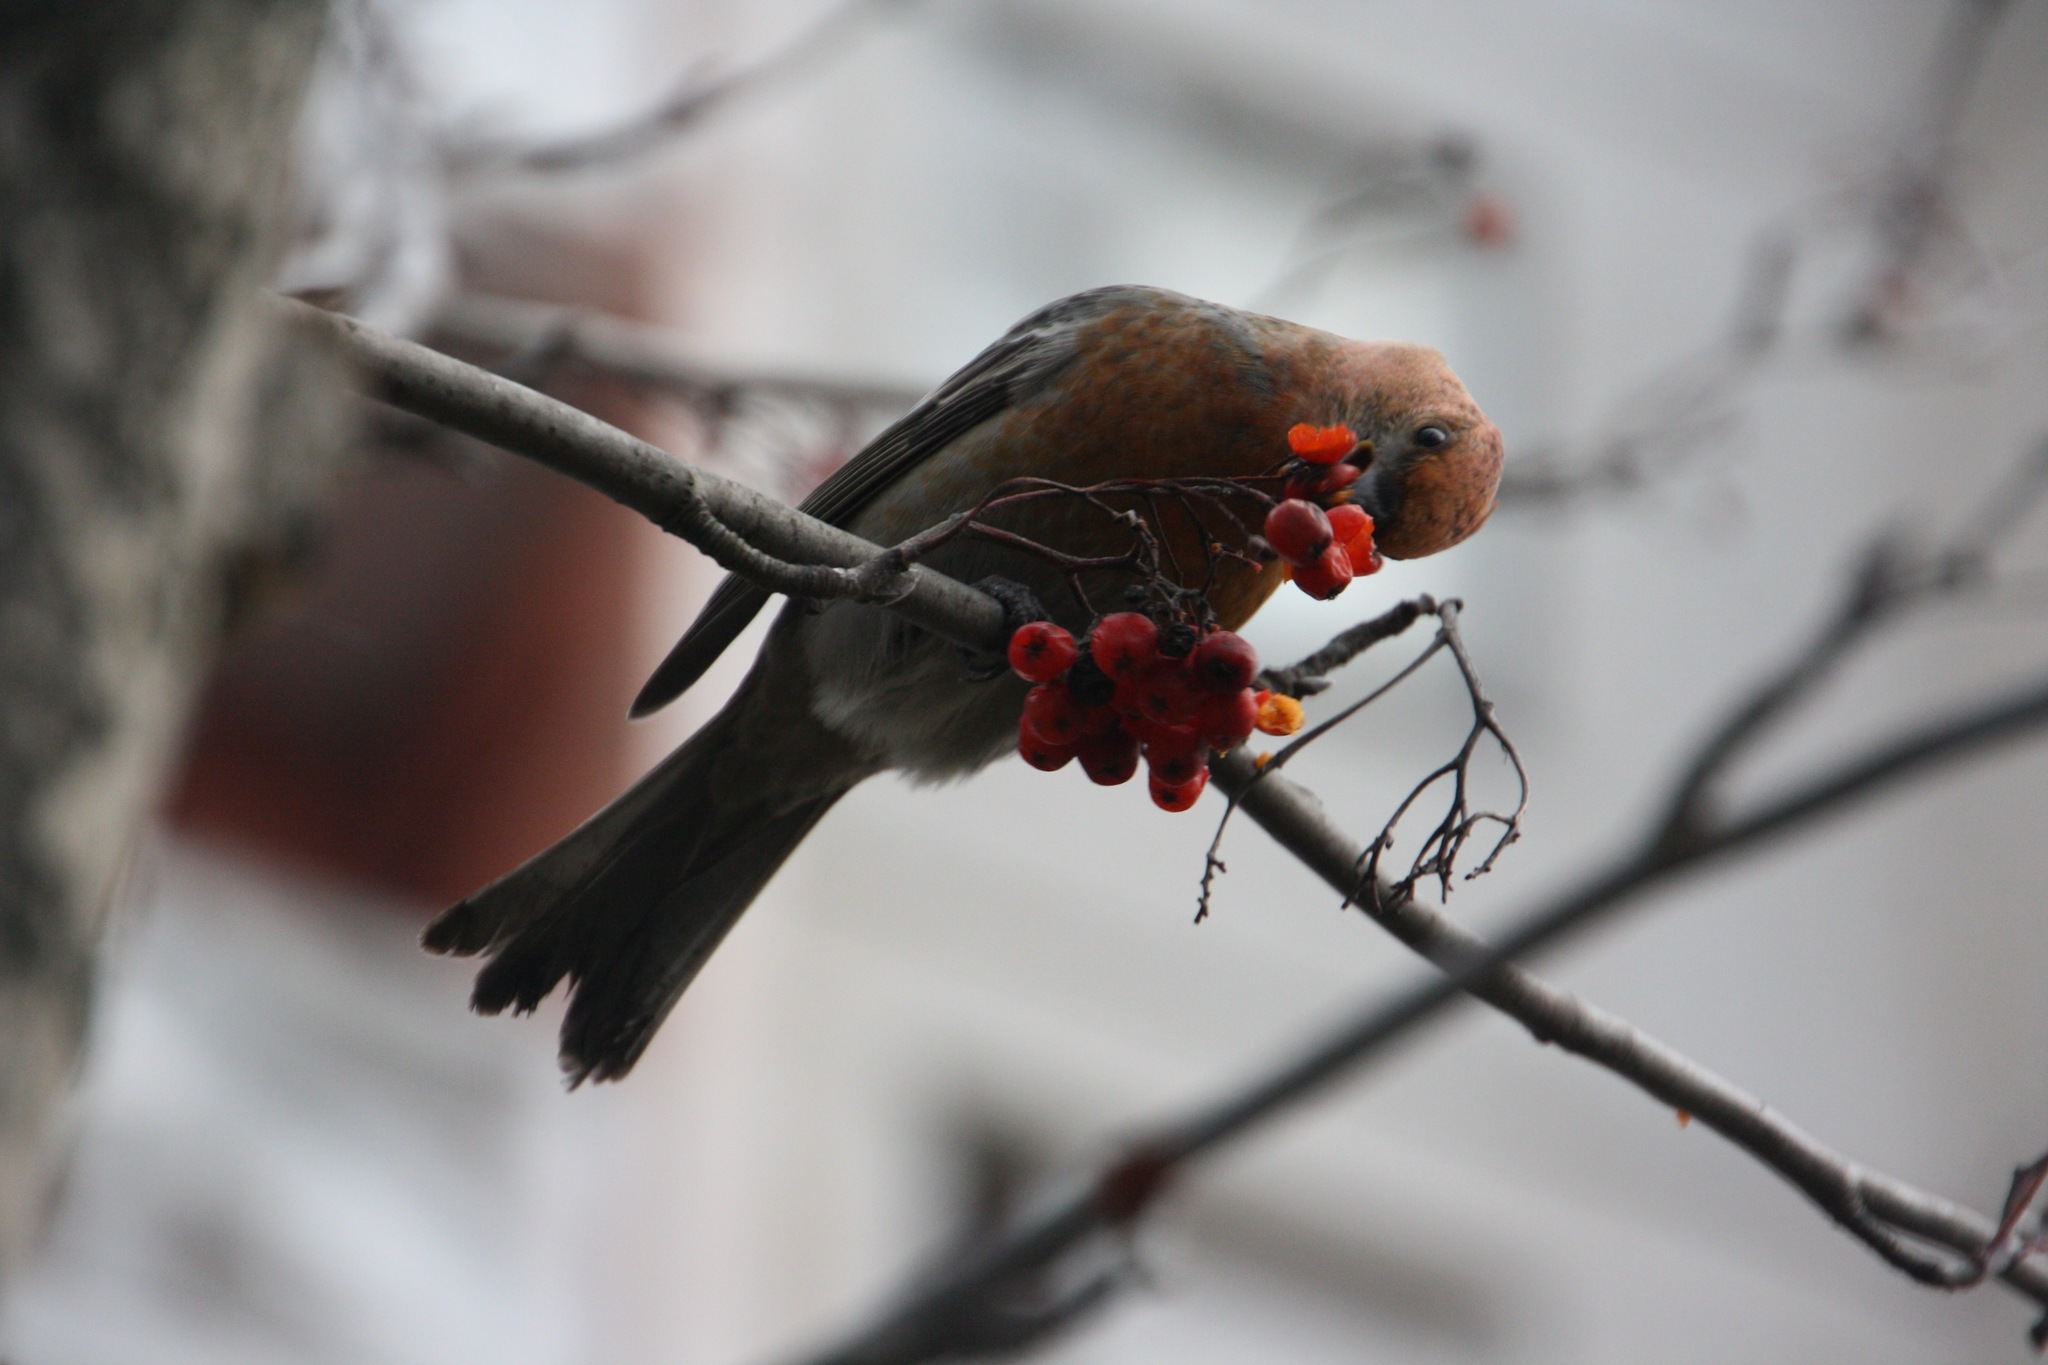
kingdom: Animalia
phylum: Chordata
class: Aves
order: Passeriformes
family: Fringillidae
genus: Pinicola
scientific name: Pinicola enucleator
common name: Pine grosbeak
